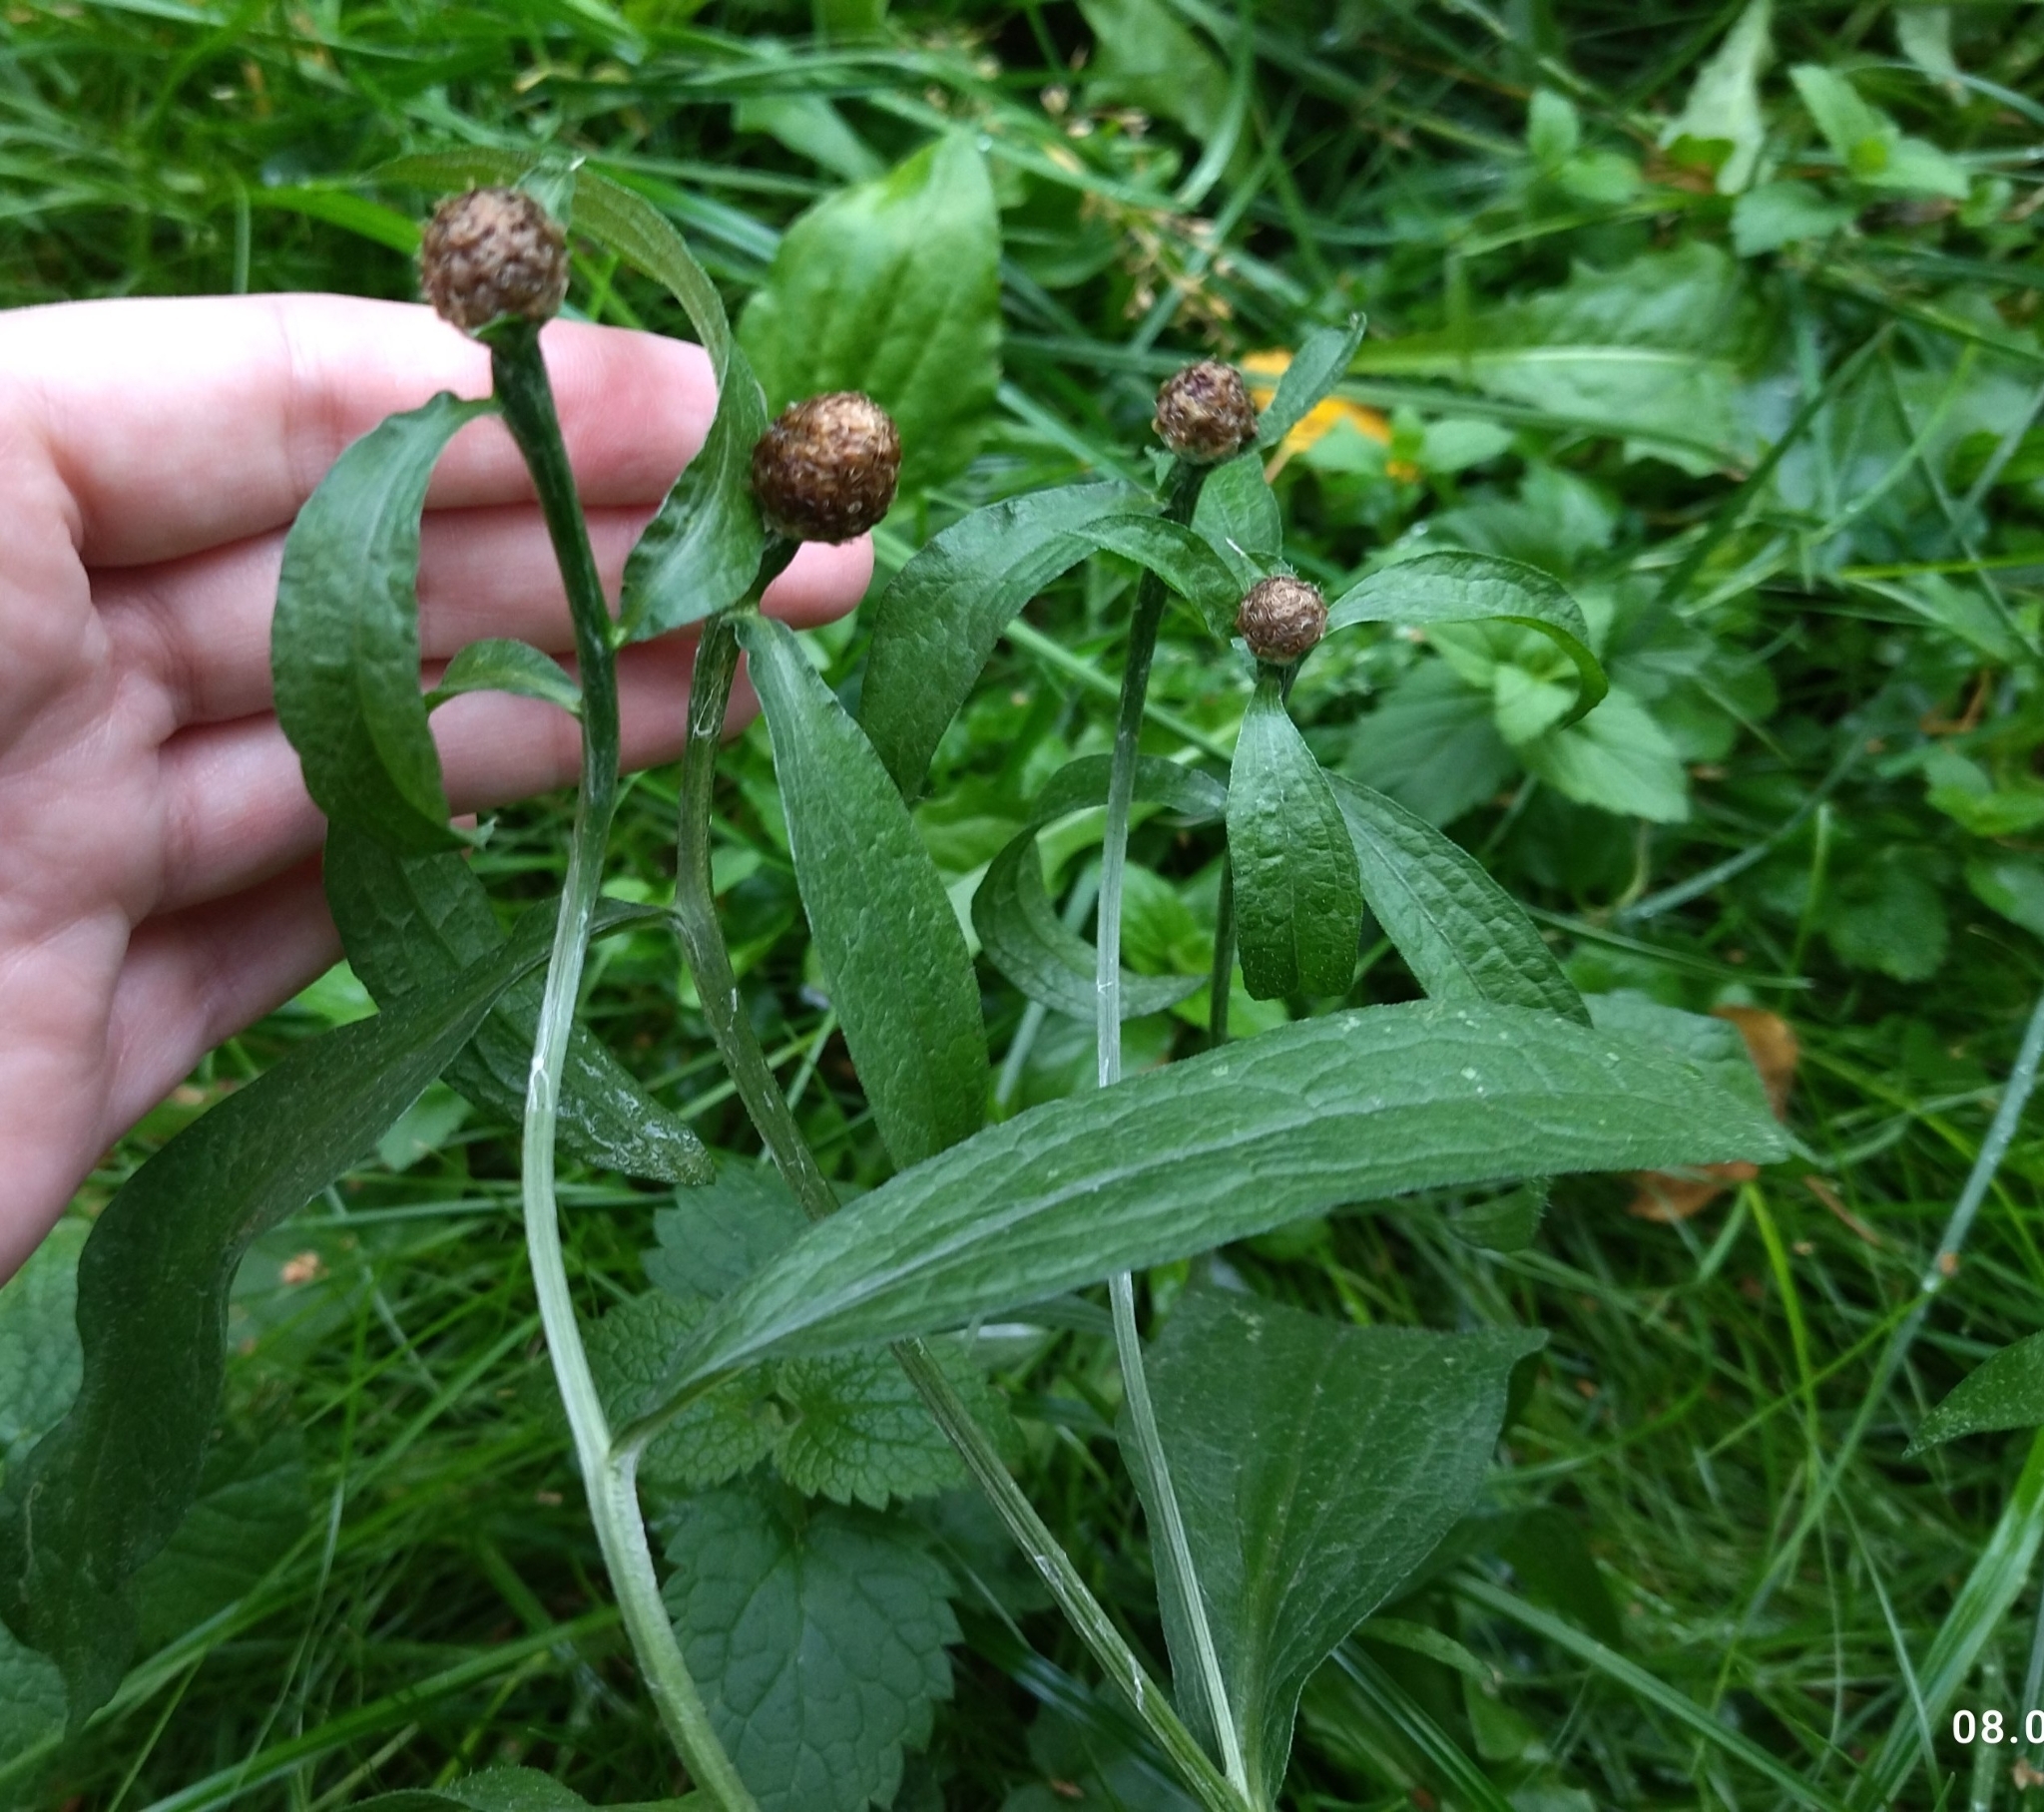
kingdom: Plantae
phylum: Tracheophyta
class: Magnoliopsida
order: Asterales
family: Asteraceae
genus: Centaurea
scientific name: Centaurea jacea
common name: Brown knapweed
